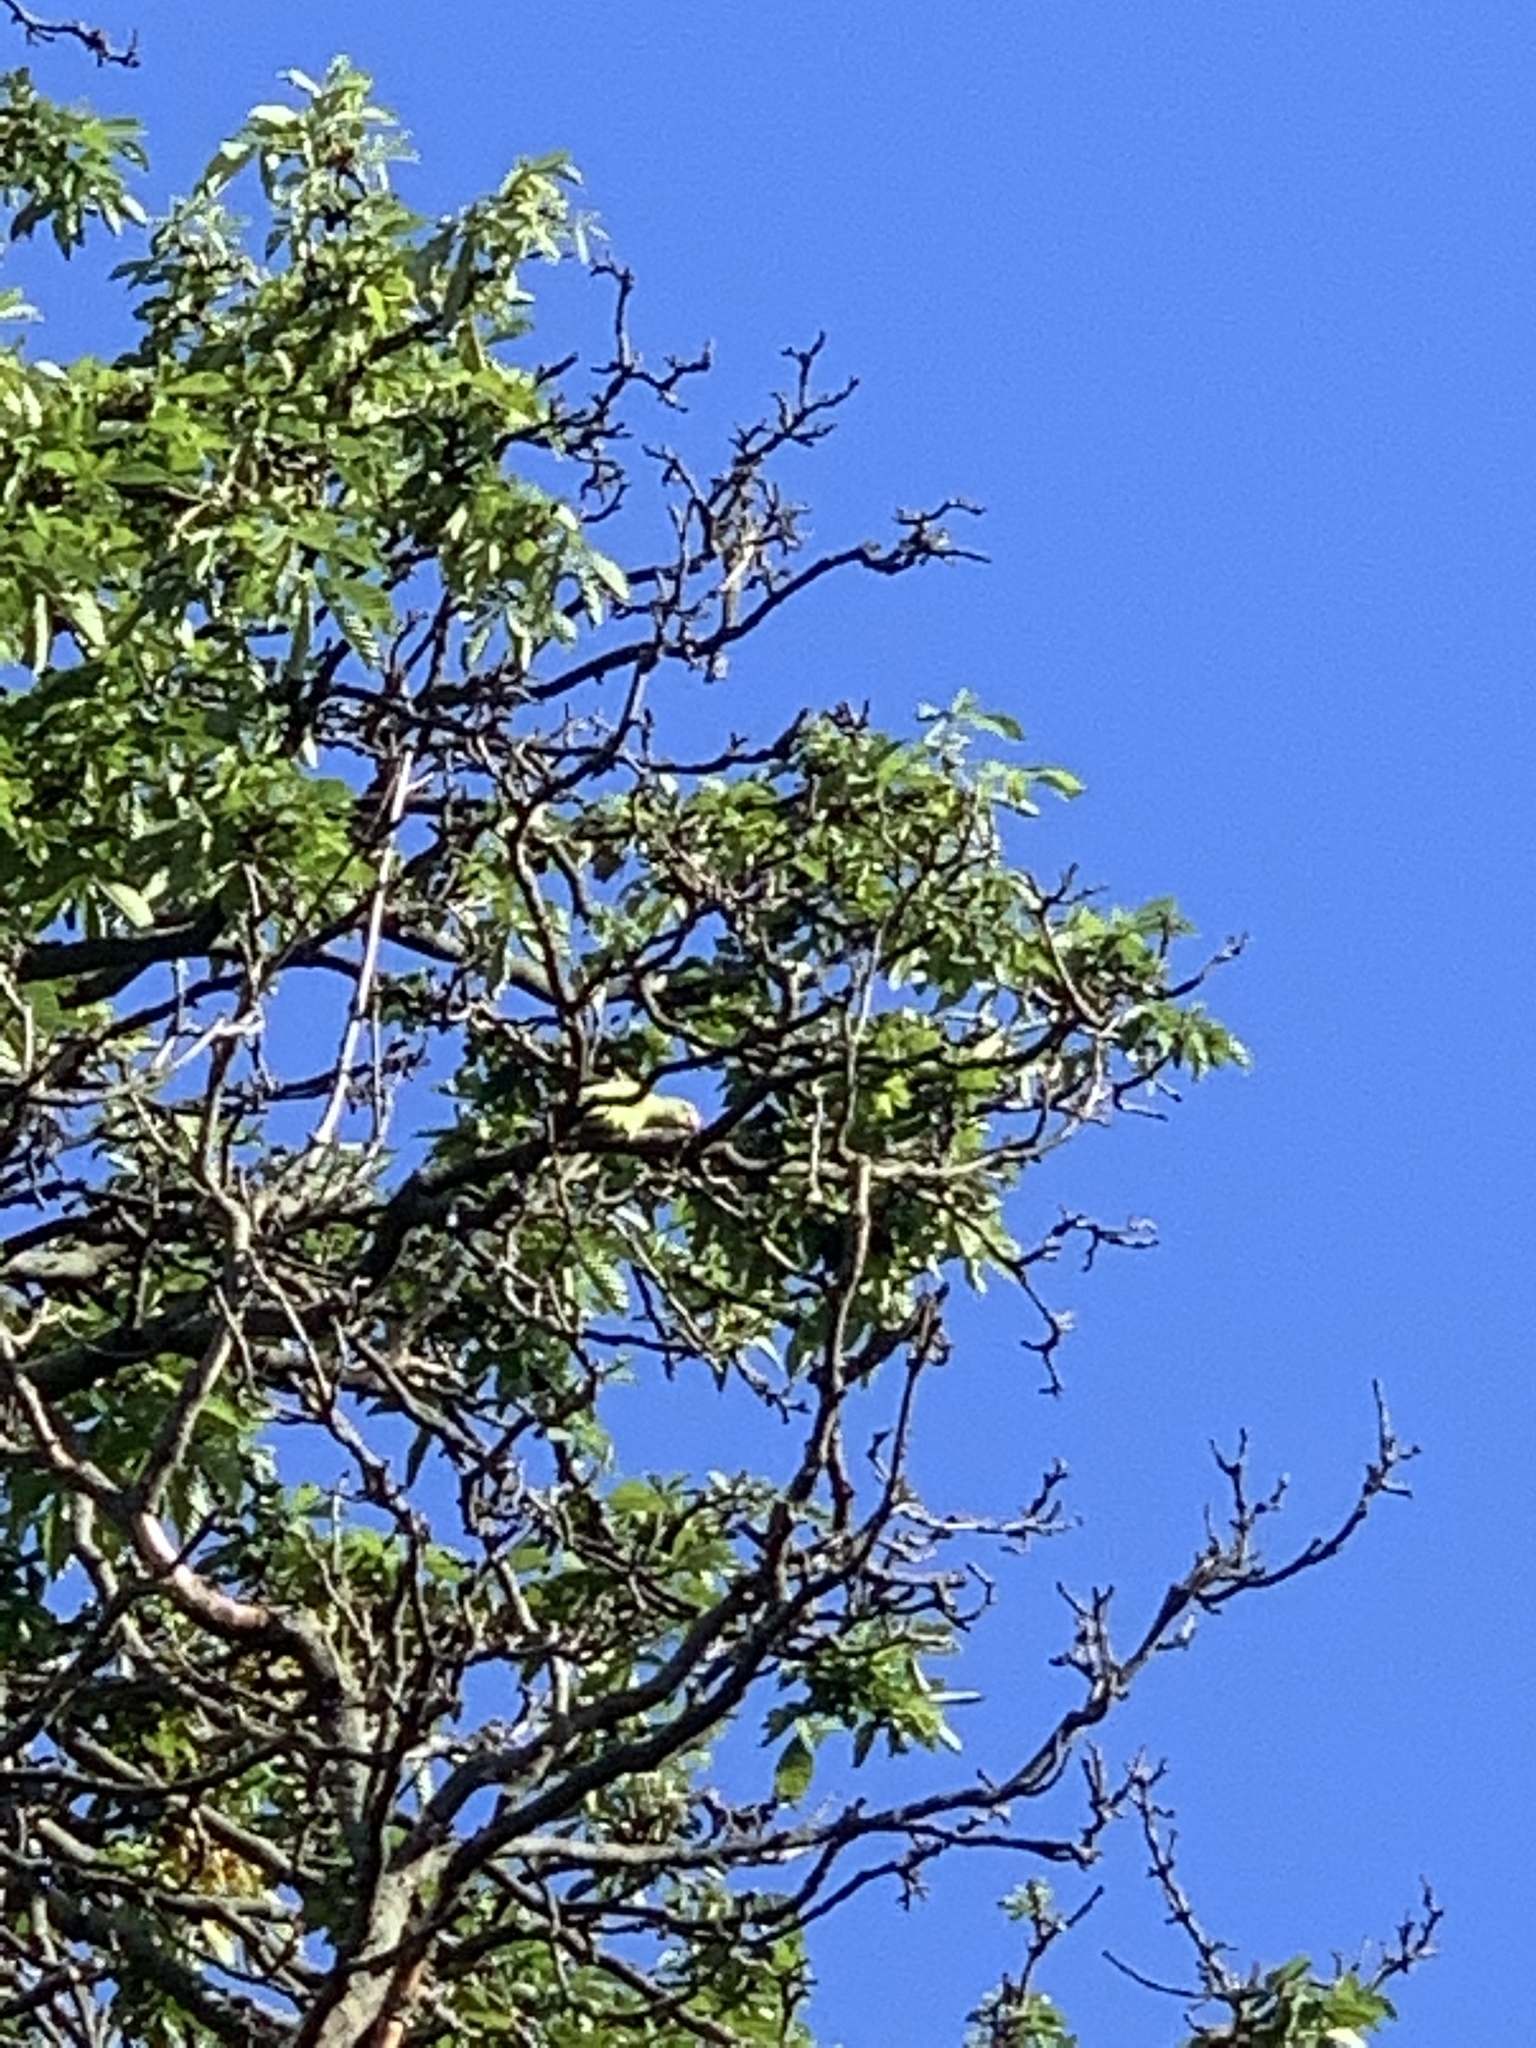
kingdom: Animalia
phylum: Chordata
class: Aves
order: Psittaciformes
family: Psittacidae
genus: Psittacula
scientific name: Psittacula krameri
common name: Rose-ringed parakeet
